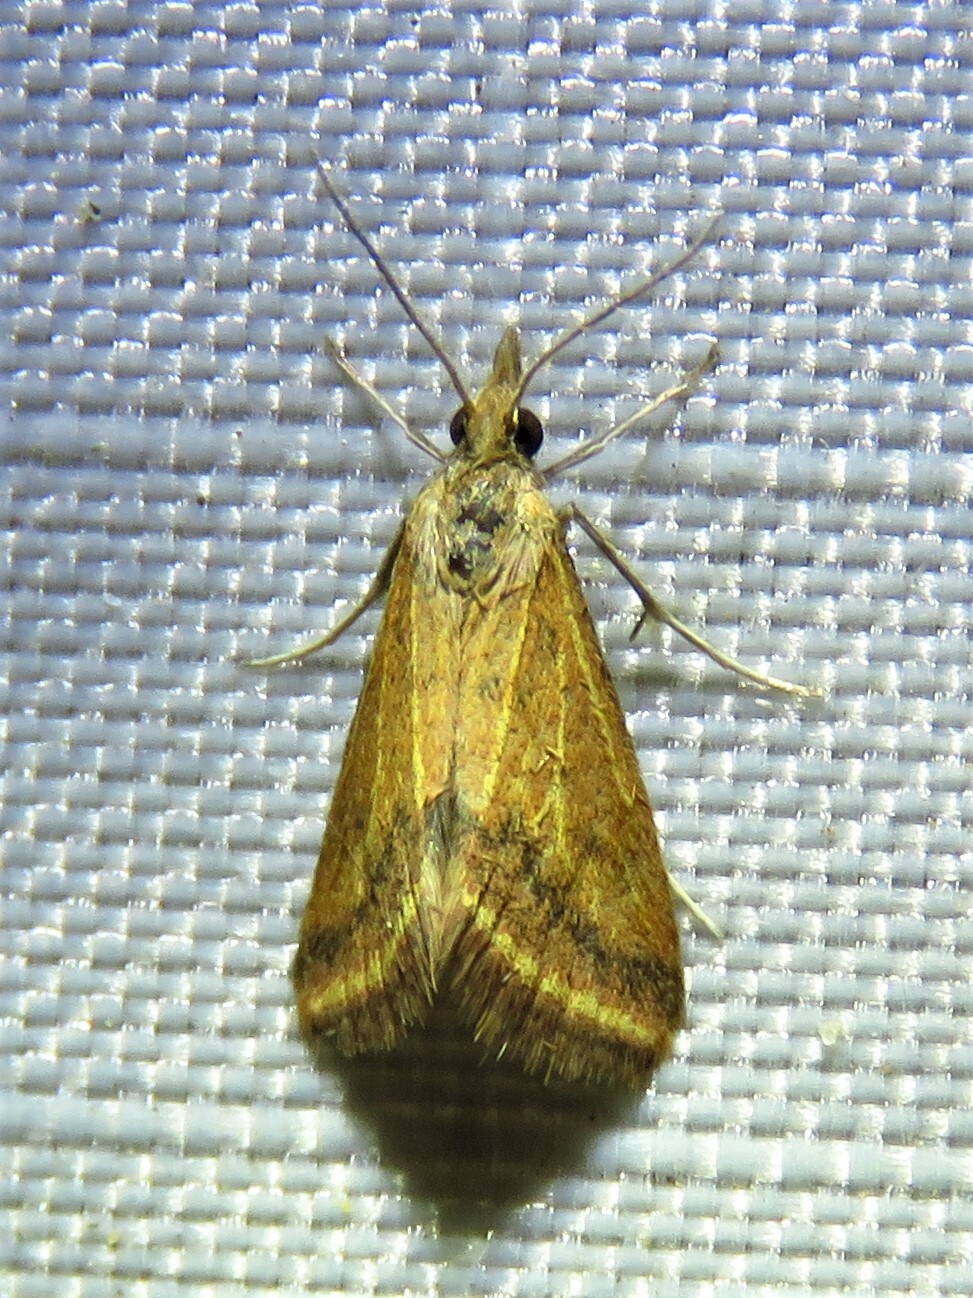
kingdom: Animalia
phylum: Arthropoda
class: Insecta
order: Lepidoptera
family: Crambidae
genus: Microtheoris
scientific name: Microtheoris ophionalis
